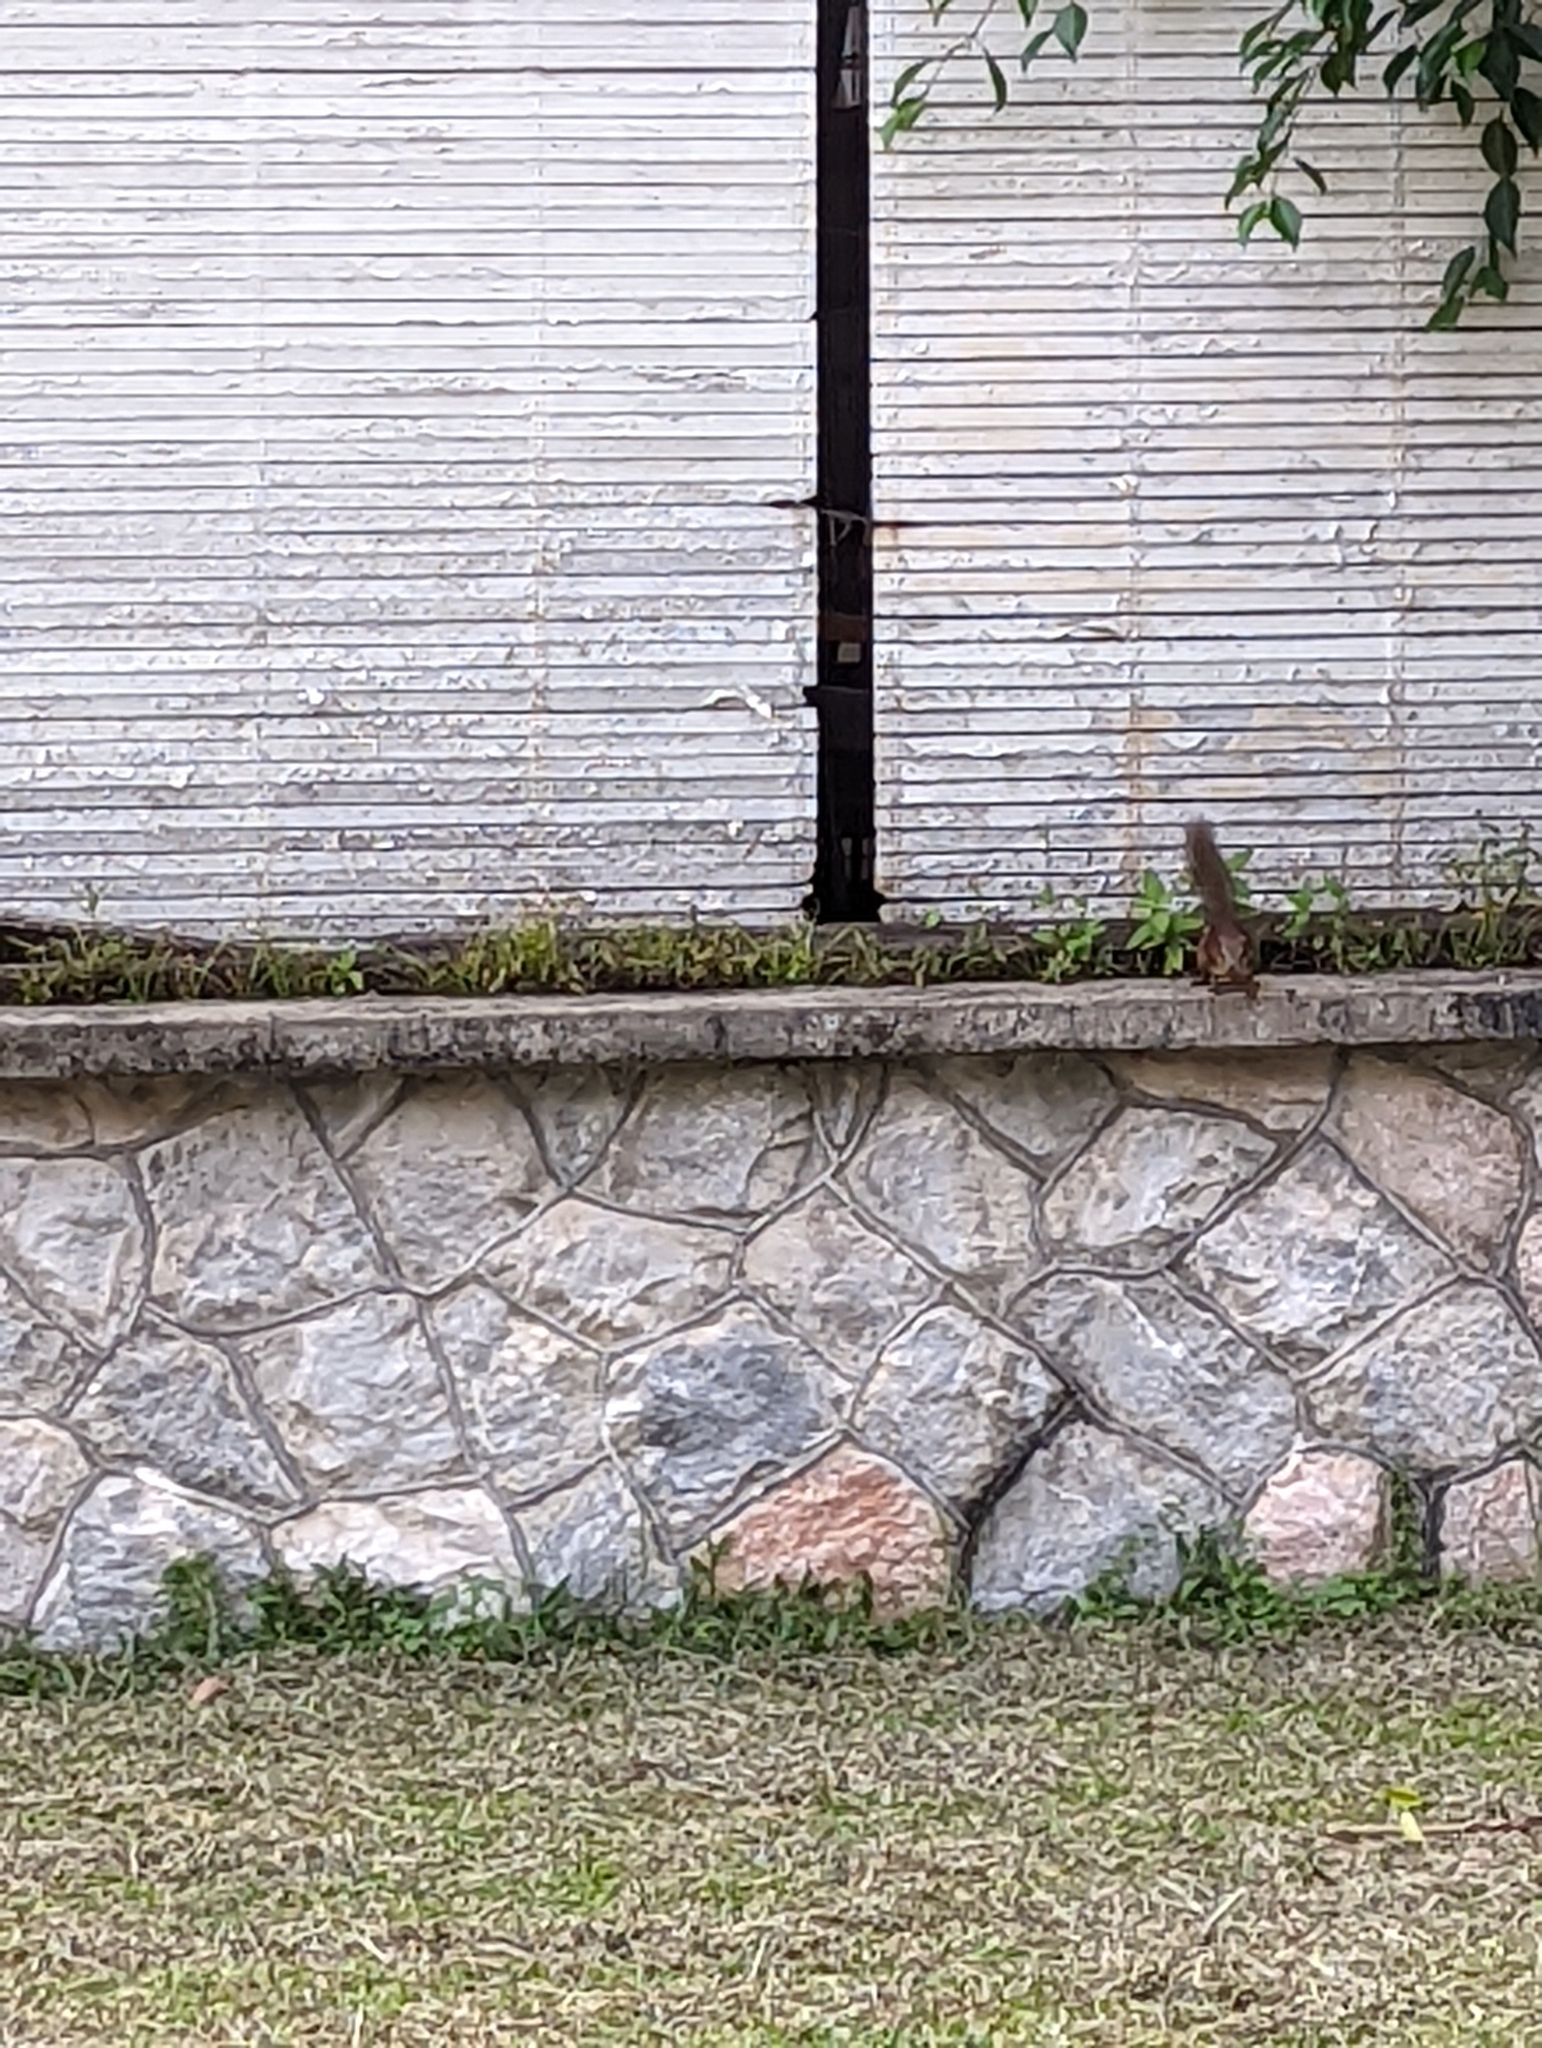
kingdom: Animalia
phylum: Chordata
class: Mammalia
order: Scandentia
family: Tupaiidae
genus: Tupaia
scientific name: Tupaia glis
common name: Common treeshrew
